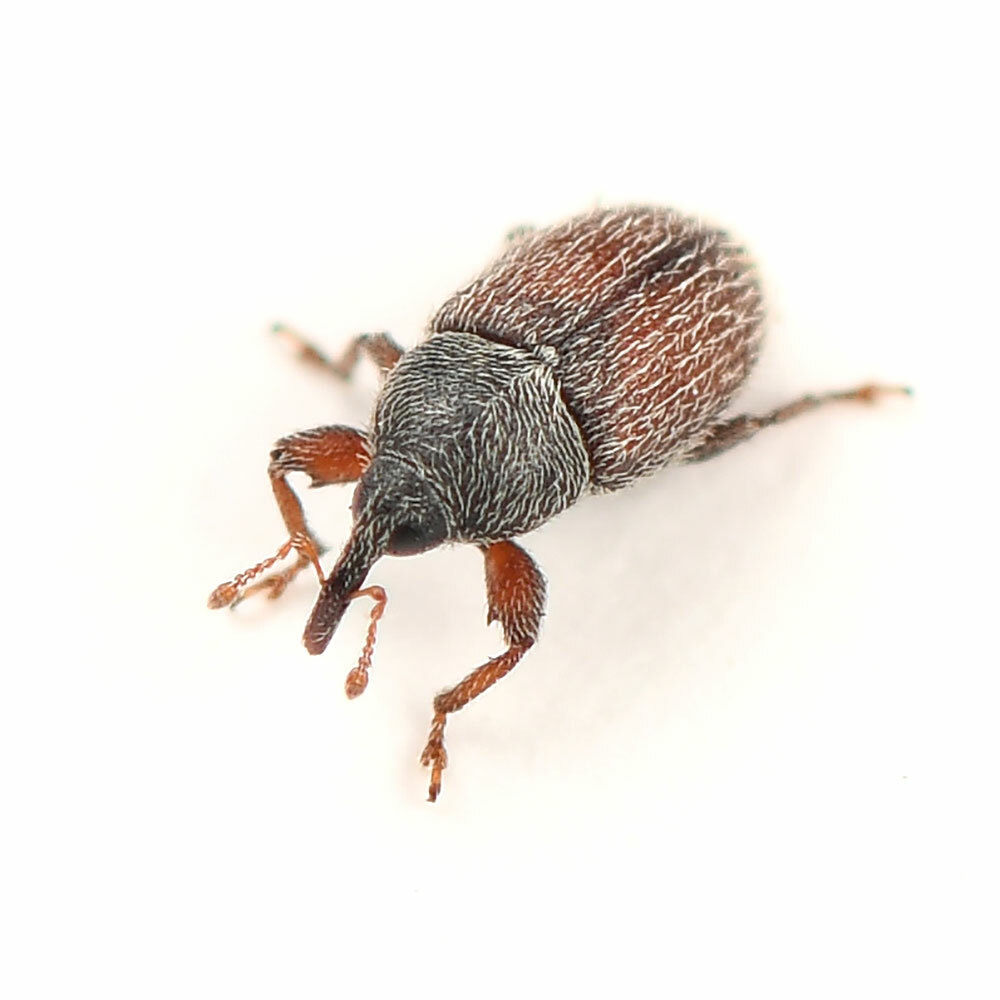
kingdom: Animalia
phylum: Arthropoda
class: Insecta
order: Coleoptera
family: Curculionidae
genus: Mecinus
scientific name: Mecinus pascuorum
